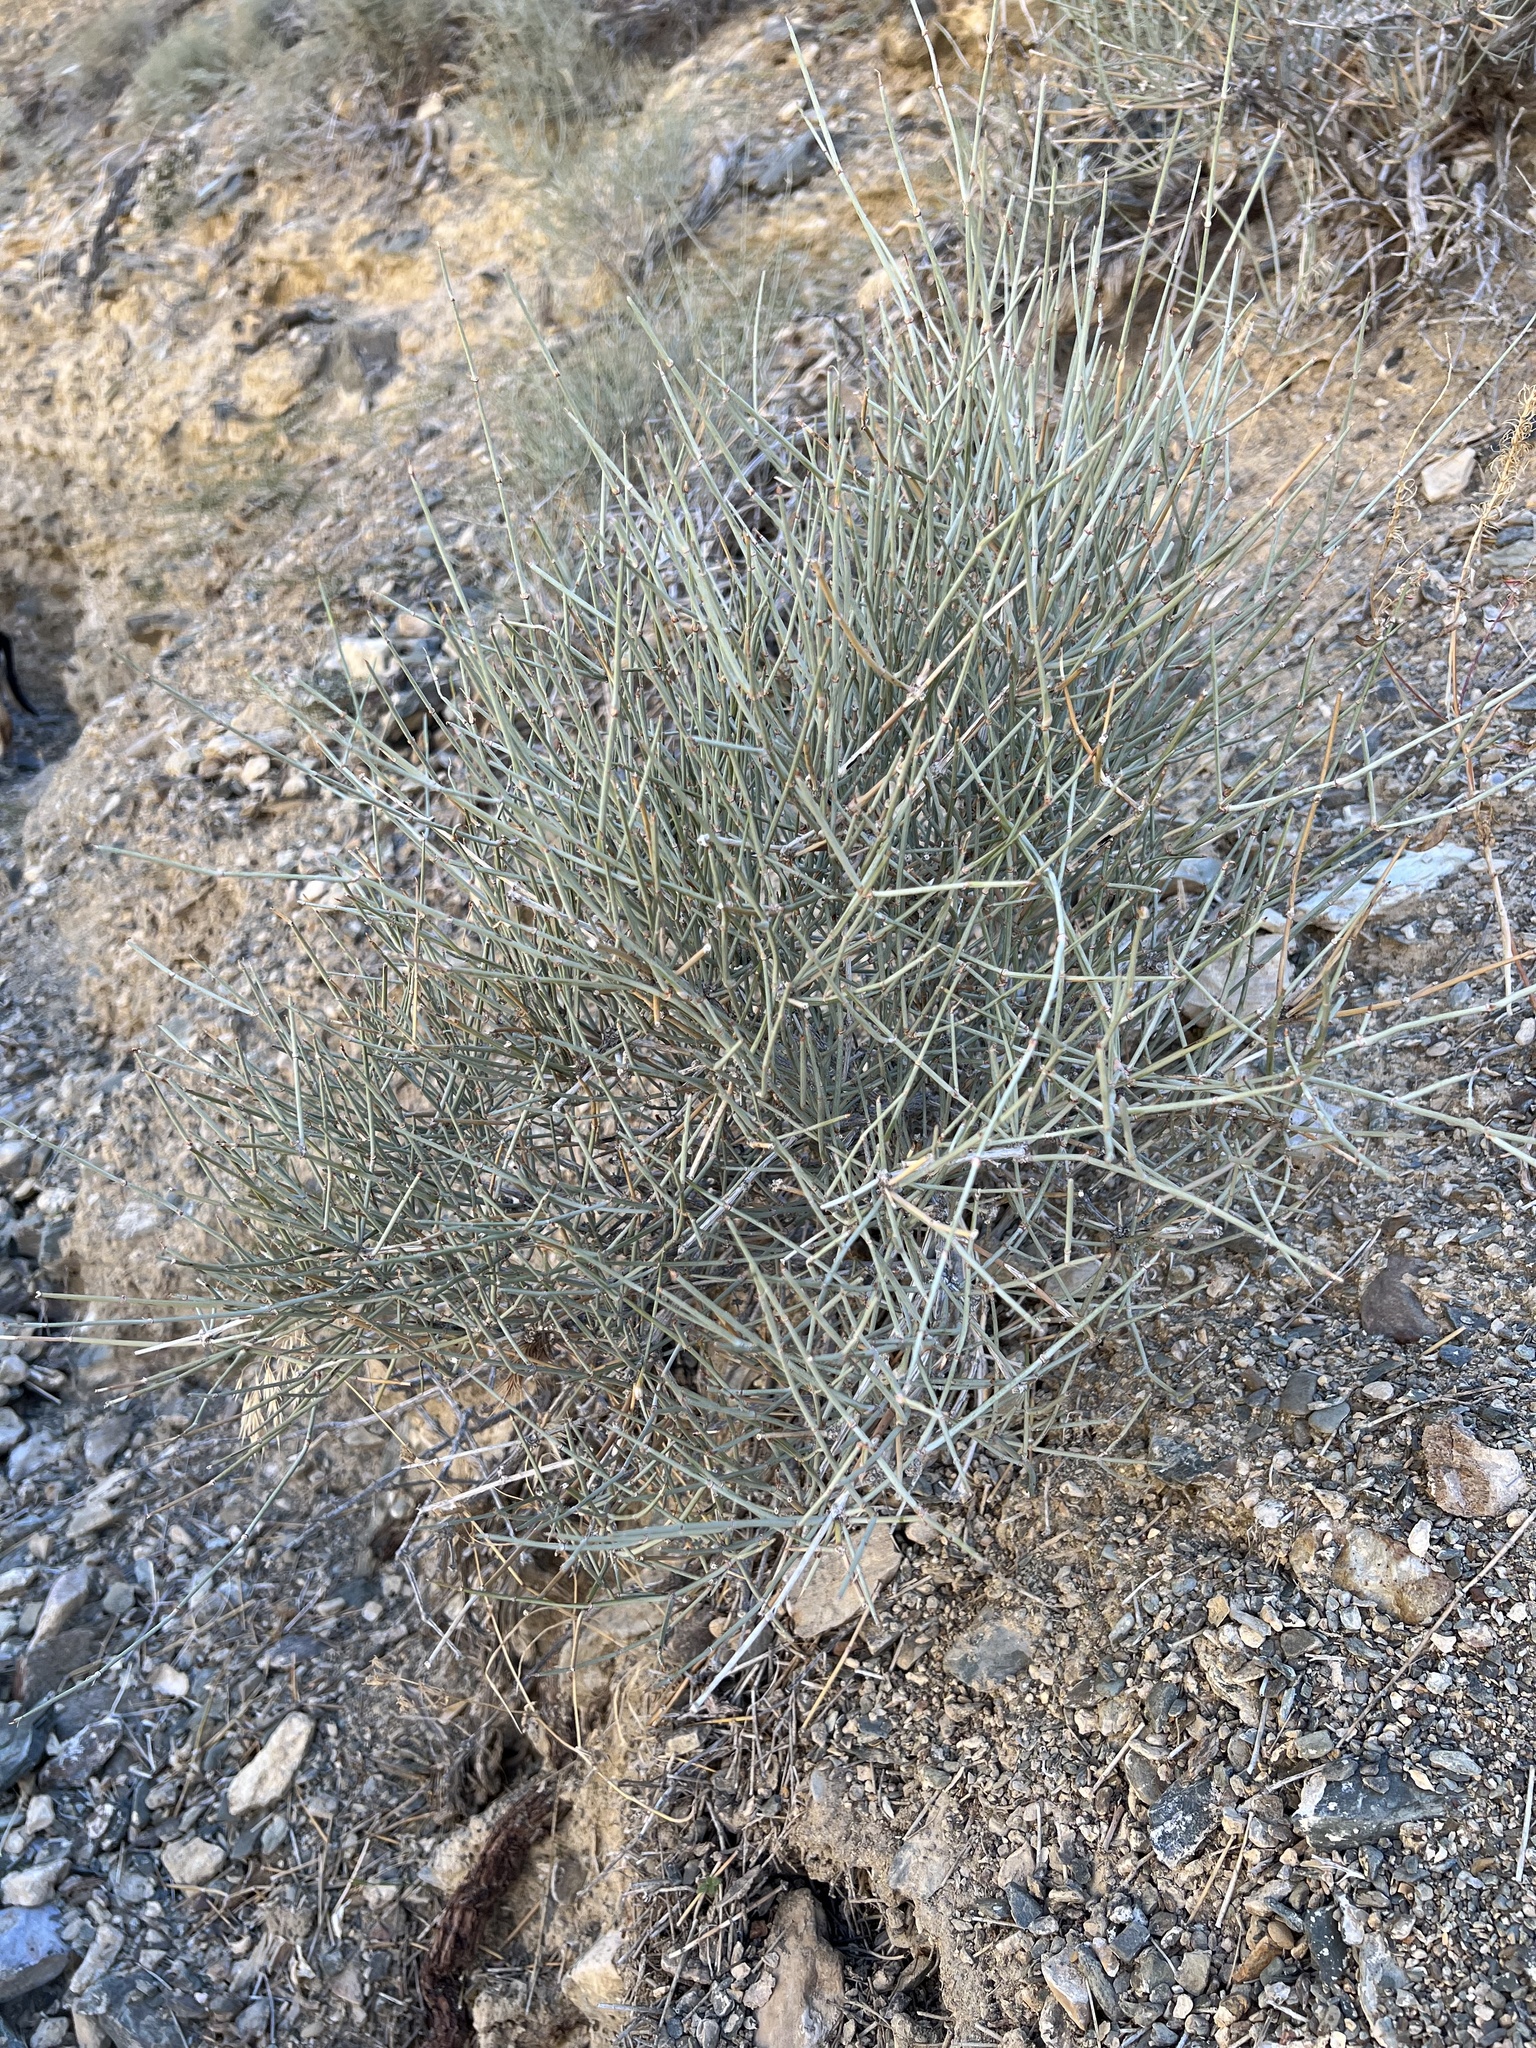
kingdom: Plantae
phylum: Tracheophyta
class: Gnetopsida
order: Ephedrales
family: Ephedraceae
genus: Ephedra
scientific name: Ephedra nevadensis
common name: Gray ephedra
